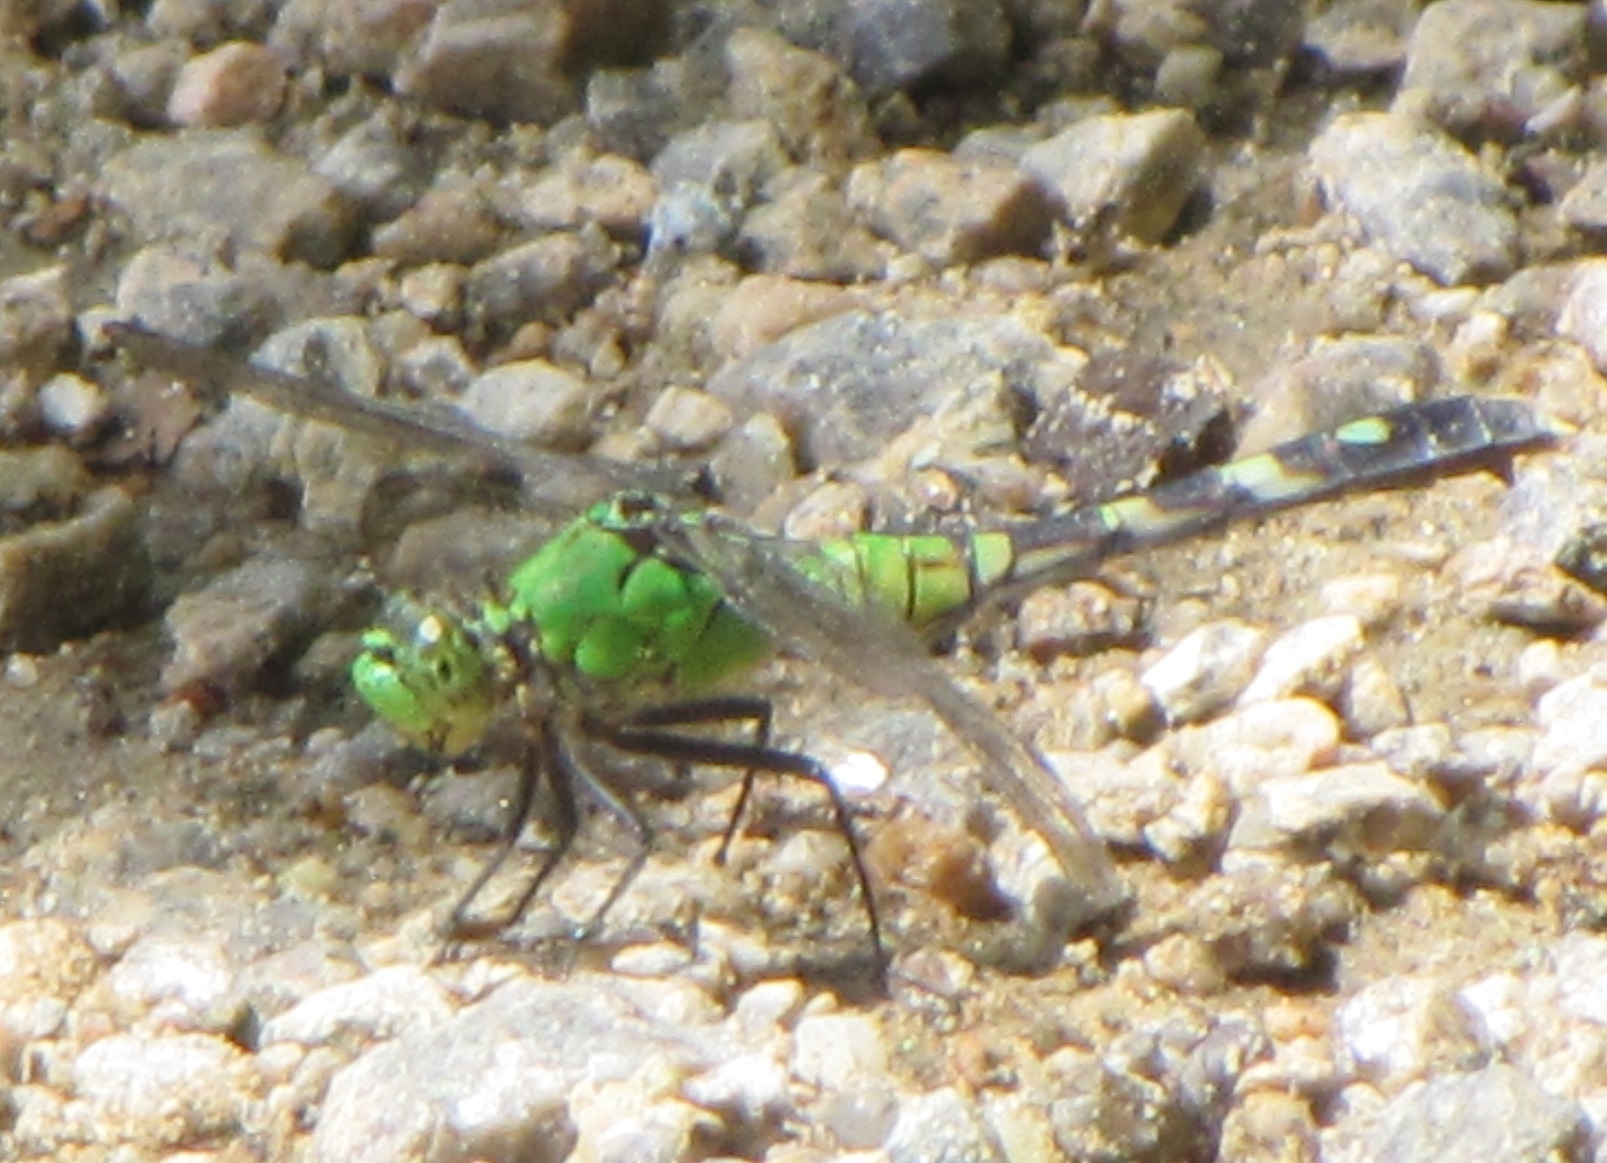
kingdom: Animalia
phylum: Arthropoda
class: Insecta
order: Odonata
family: Libellulidae
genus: Erythemis
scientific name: Erythemis simplicicollis
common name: Eastern pondhawk
